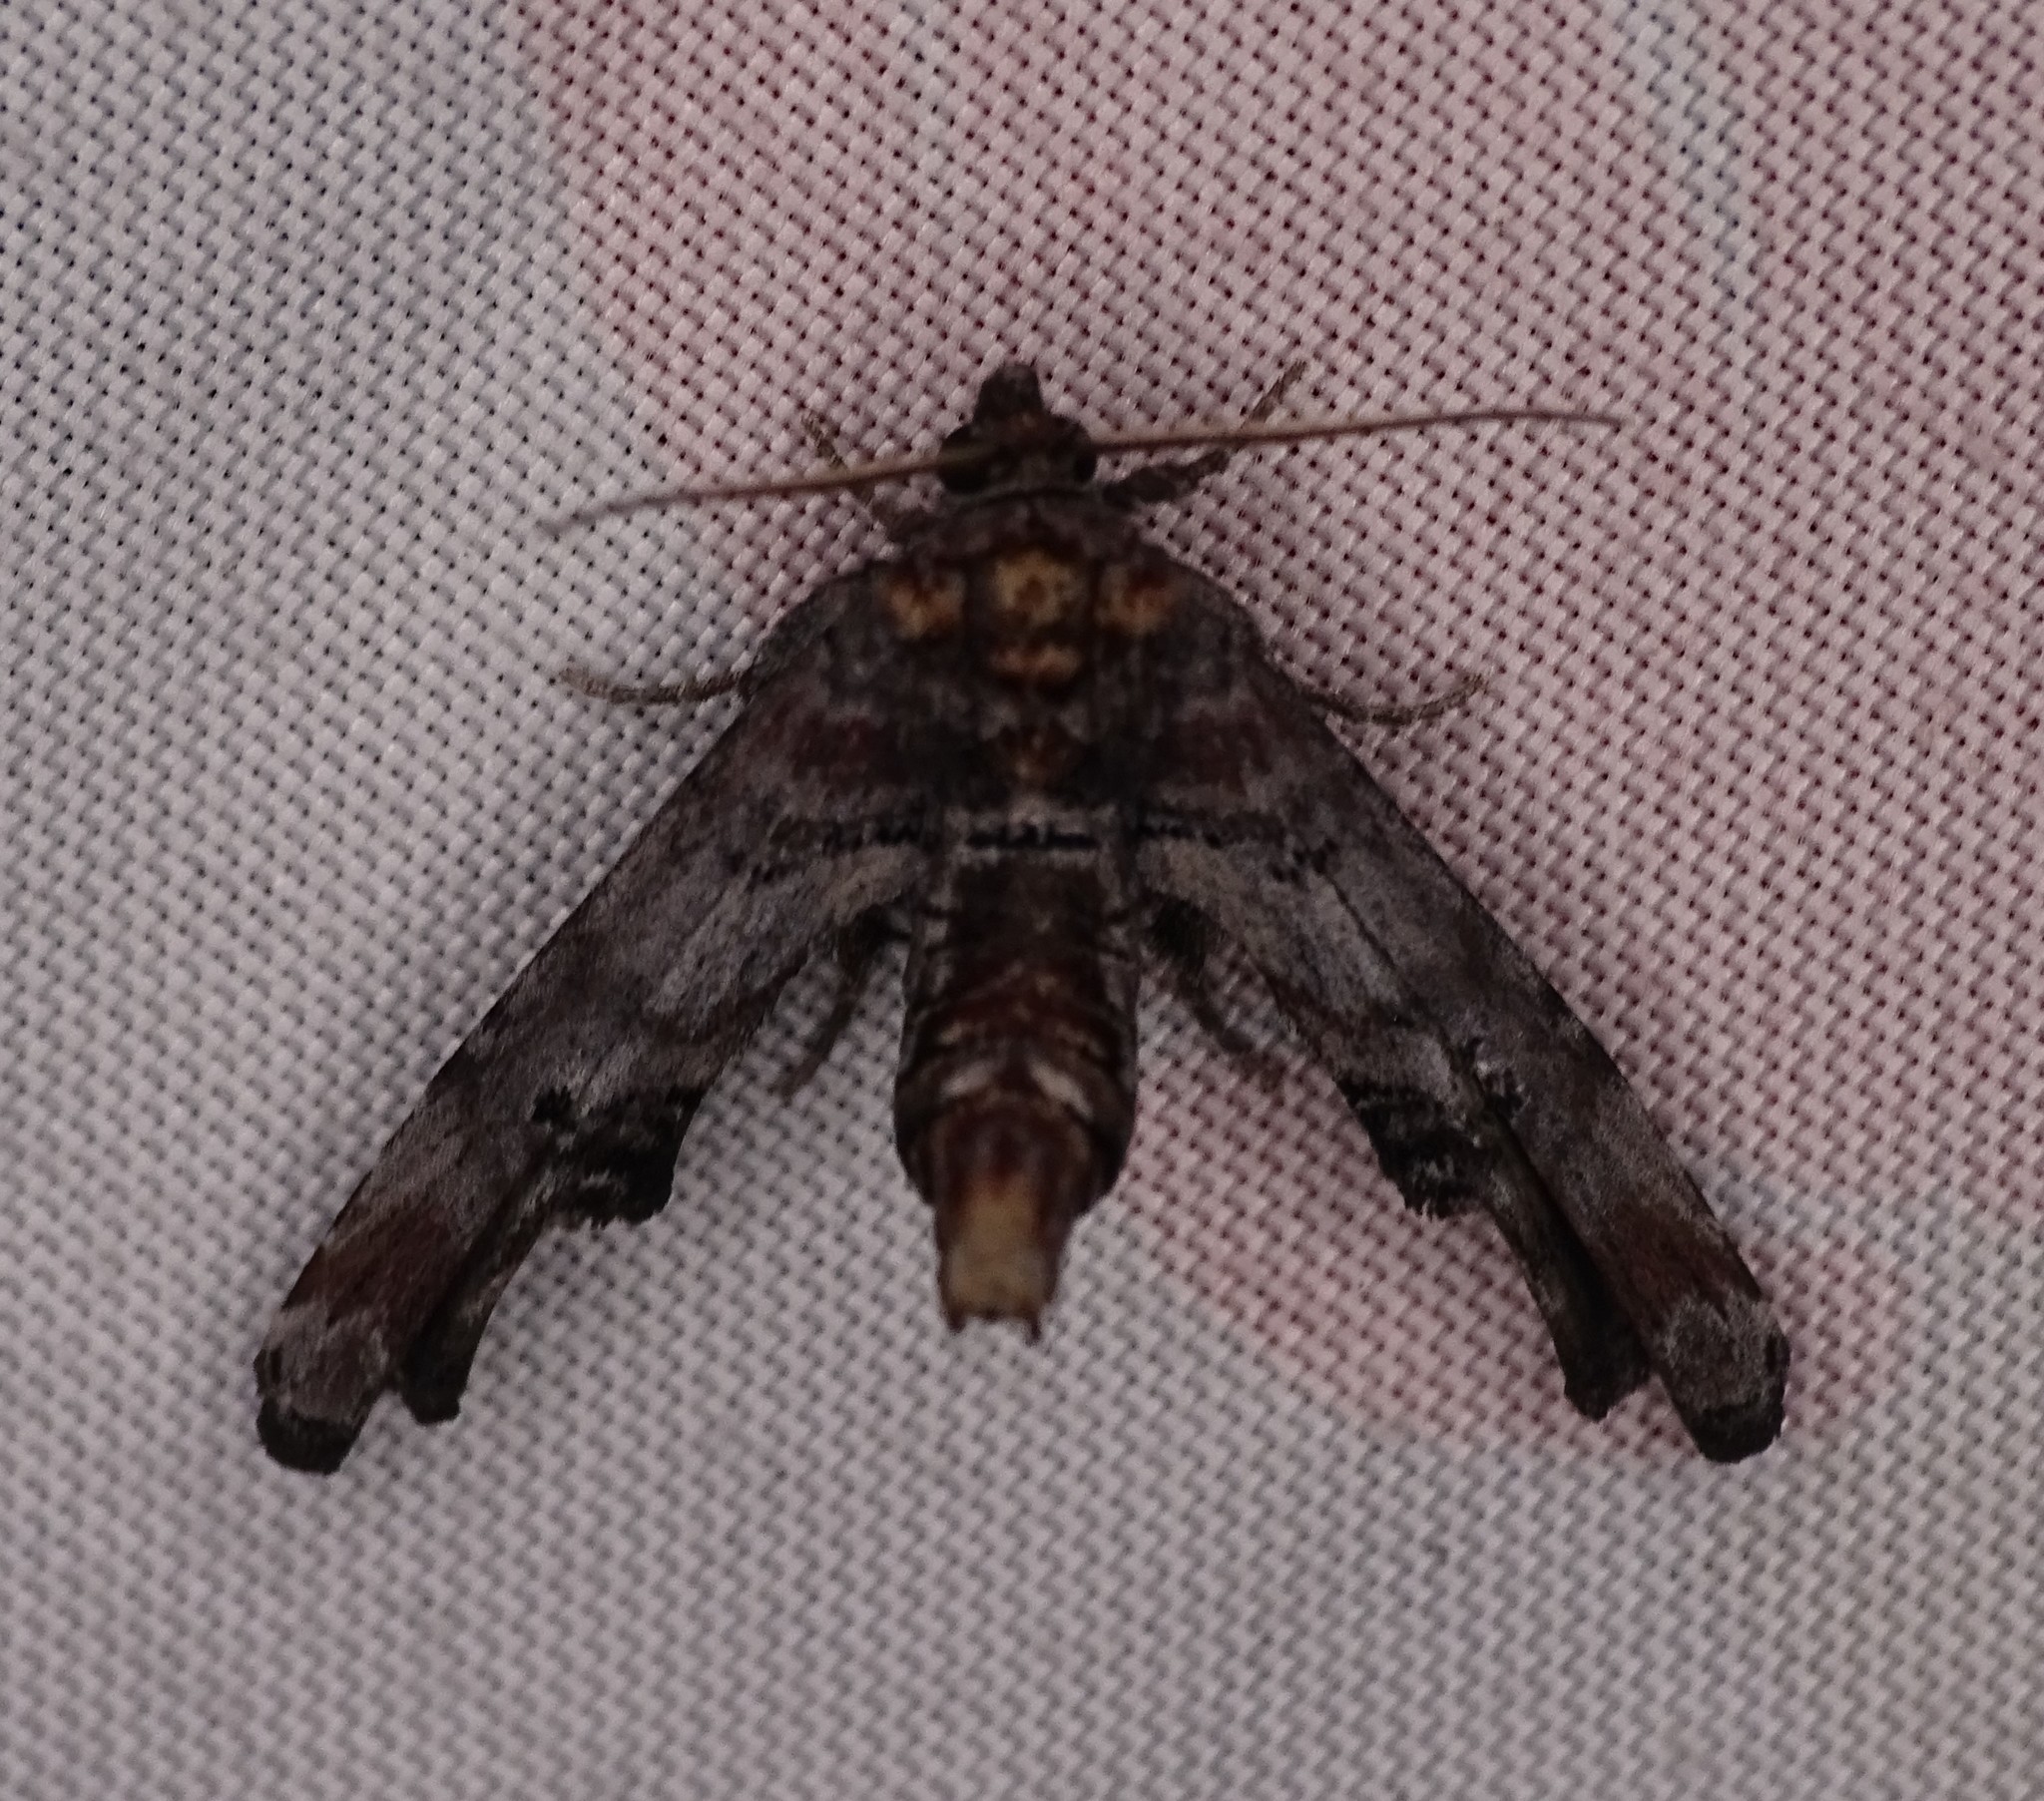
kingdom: Animalia
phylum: Arthropoda
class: Insecta
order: Lepidoptera
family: Euteliidae
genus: Marathyssa
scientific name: Marathyssa inficita
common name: Dark marathyssa moth
